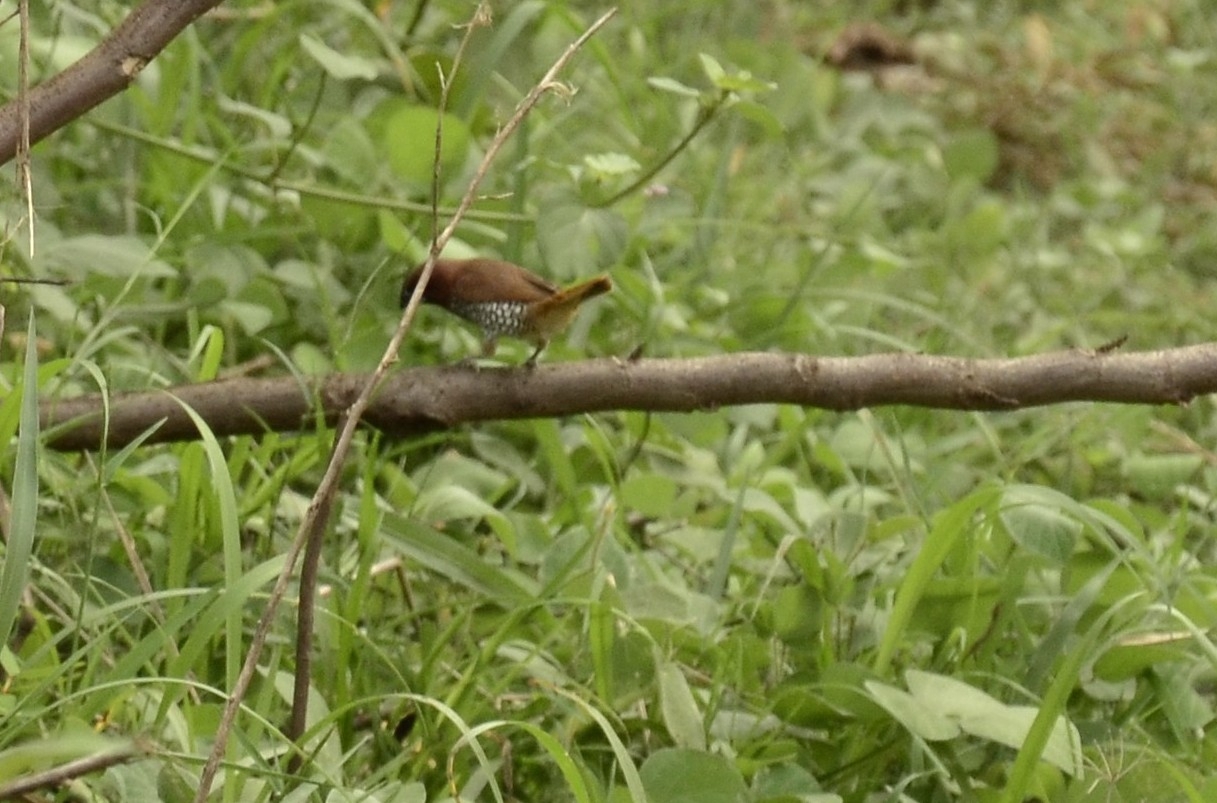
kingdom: Animalia
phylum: Chordata
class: Aves
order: Passeriformes
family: Estrildidae
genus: Lonchura
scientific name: Lonchura punctulata
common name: Scaly-breasted munia
